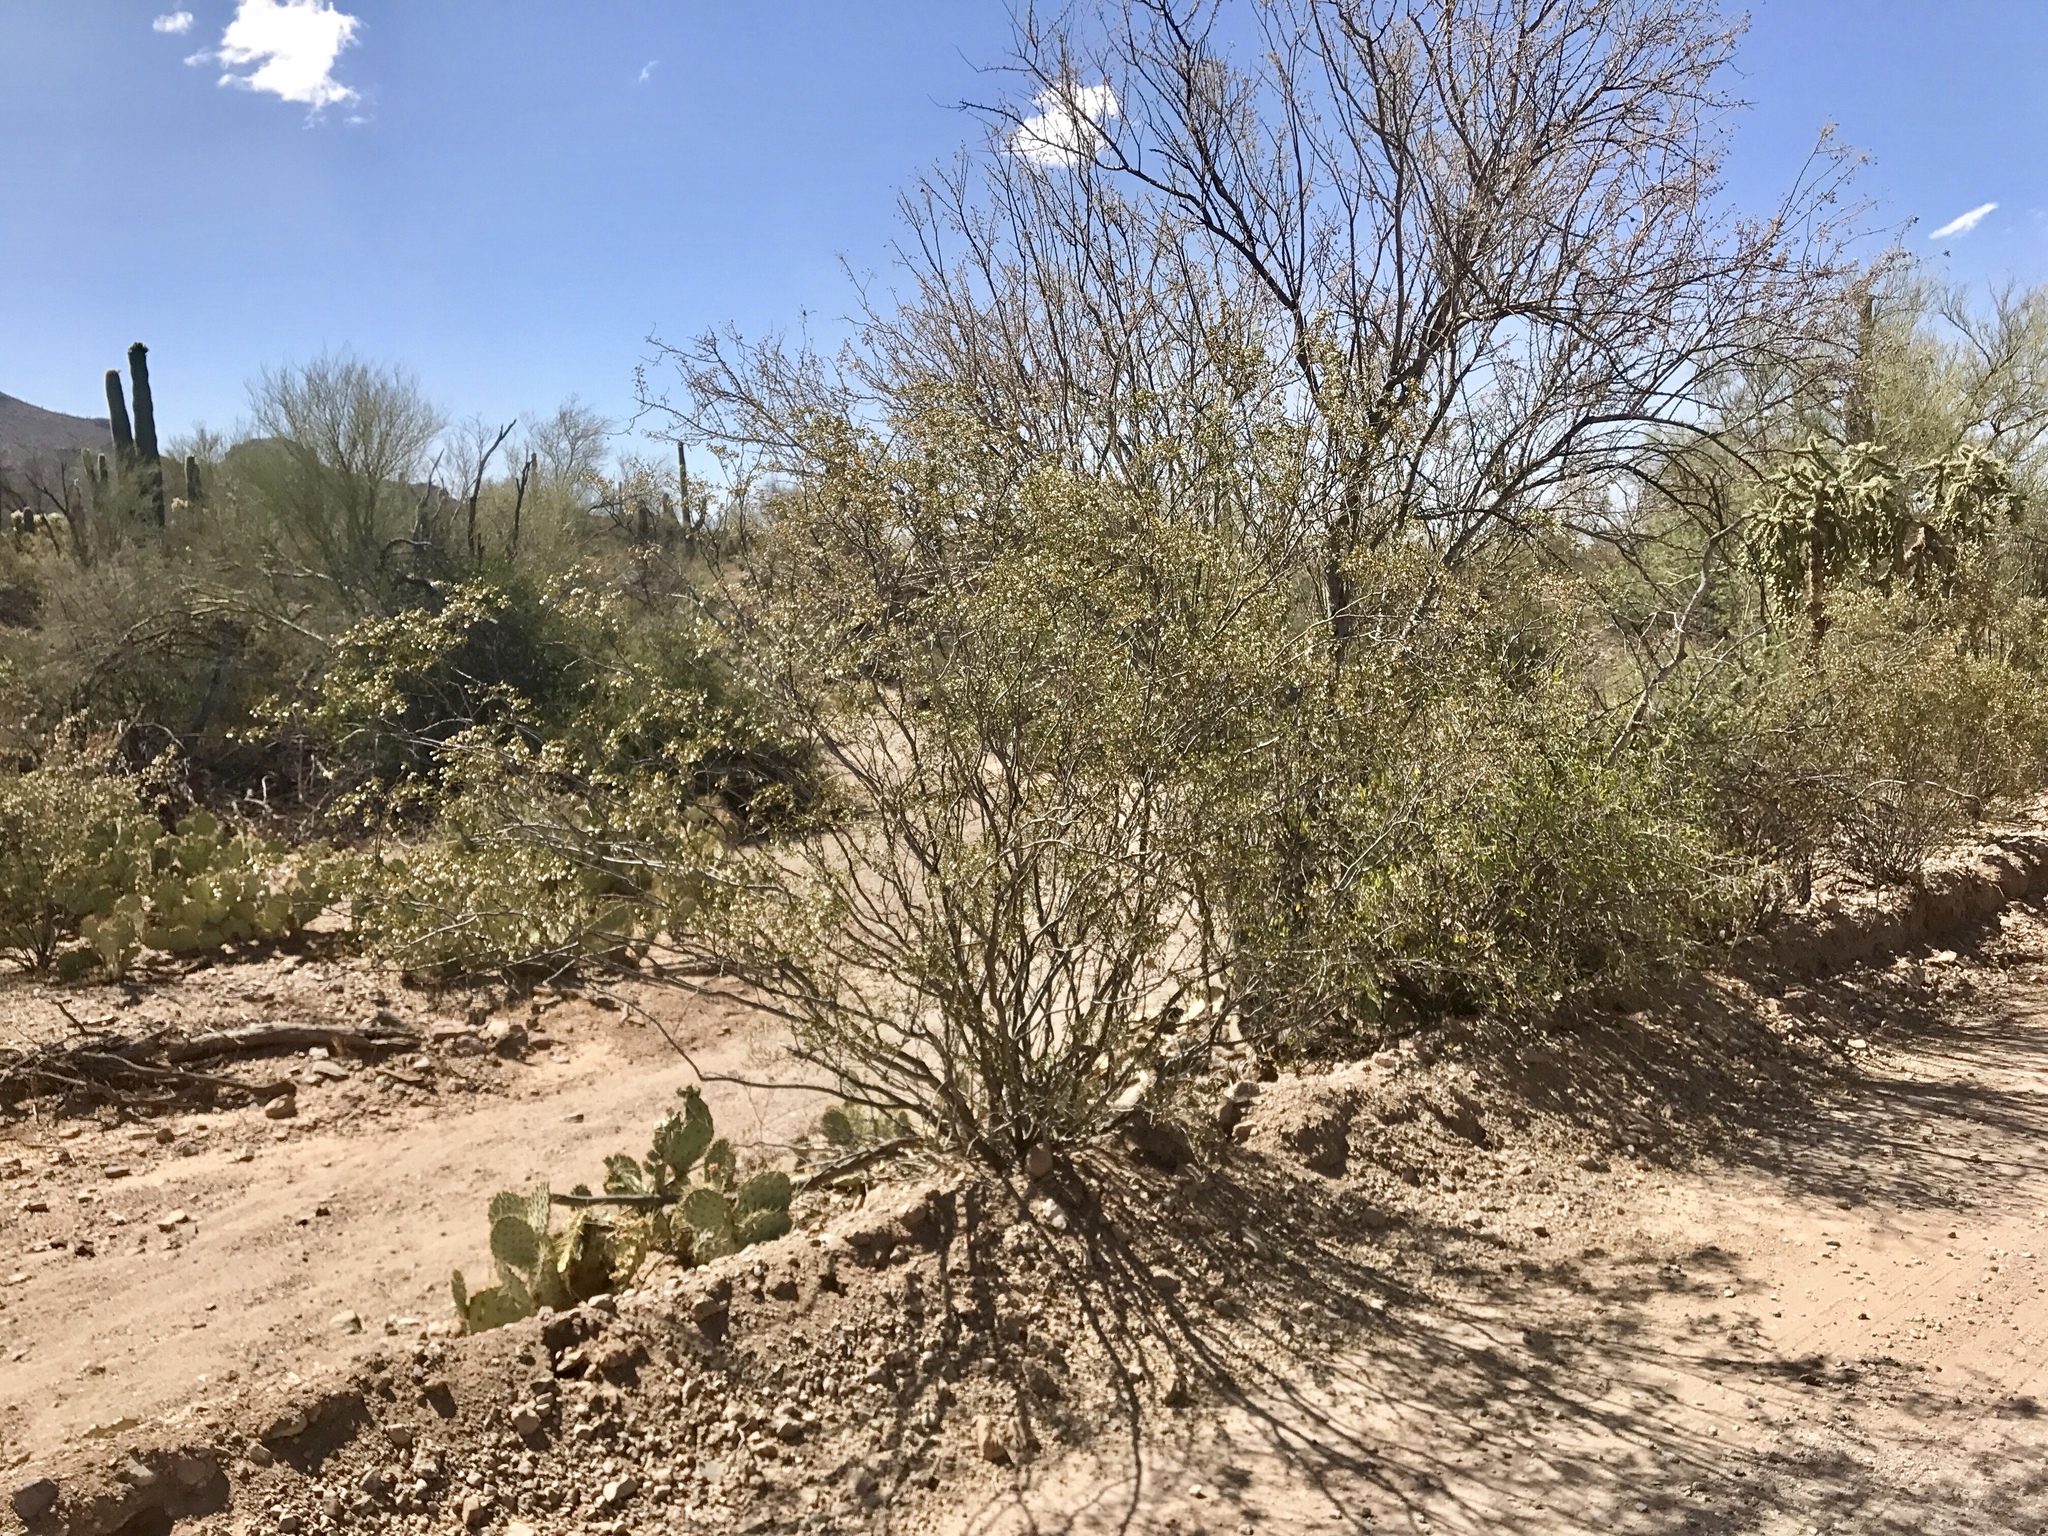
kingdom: Plantae
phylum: Tracheophyta
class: Magnoliopsida
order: Fabales
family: Fabaceae
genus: Olneya
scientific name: Olneya tesota
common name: Desert ironwood
